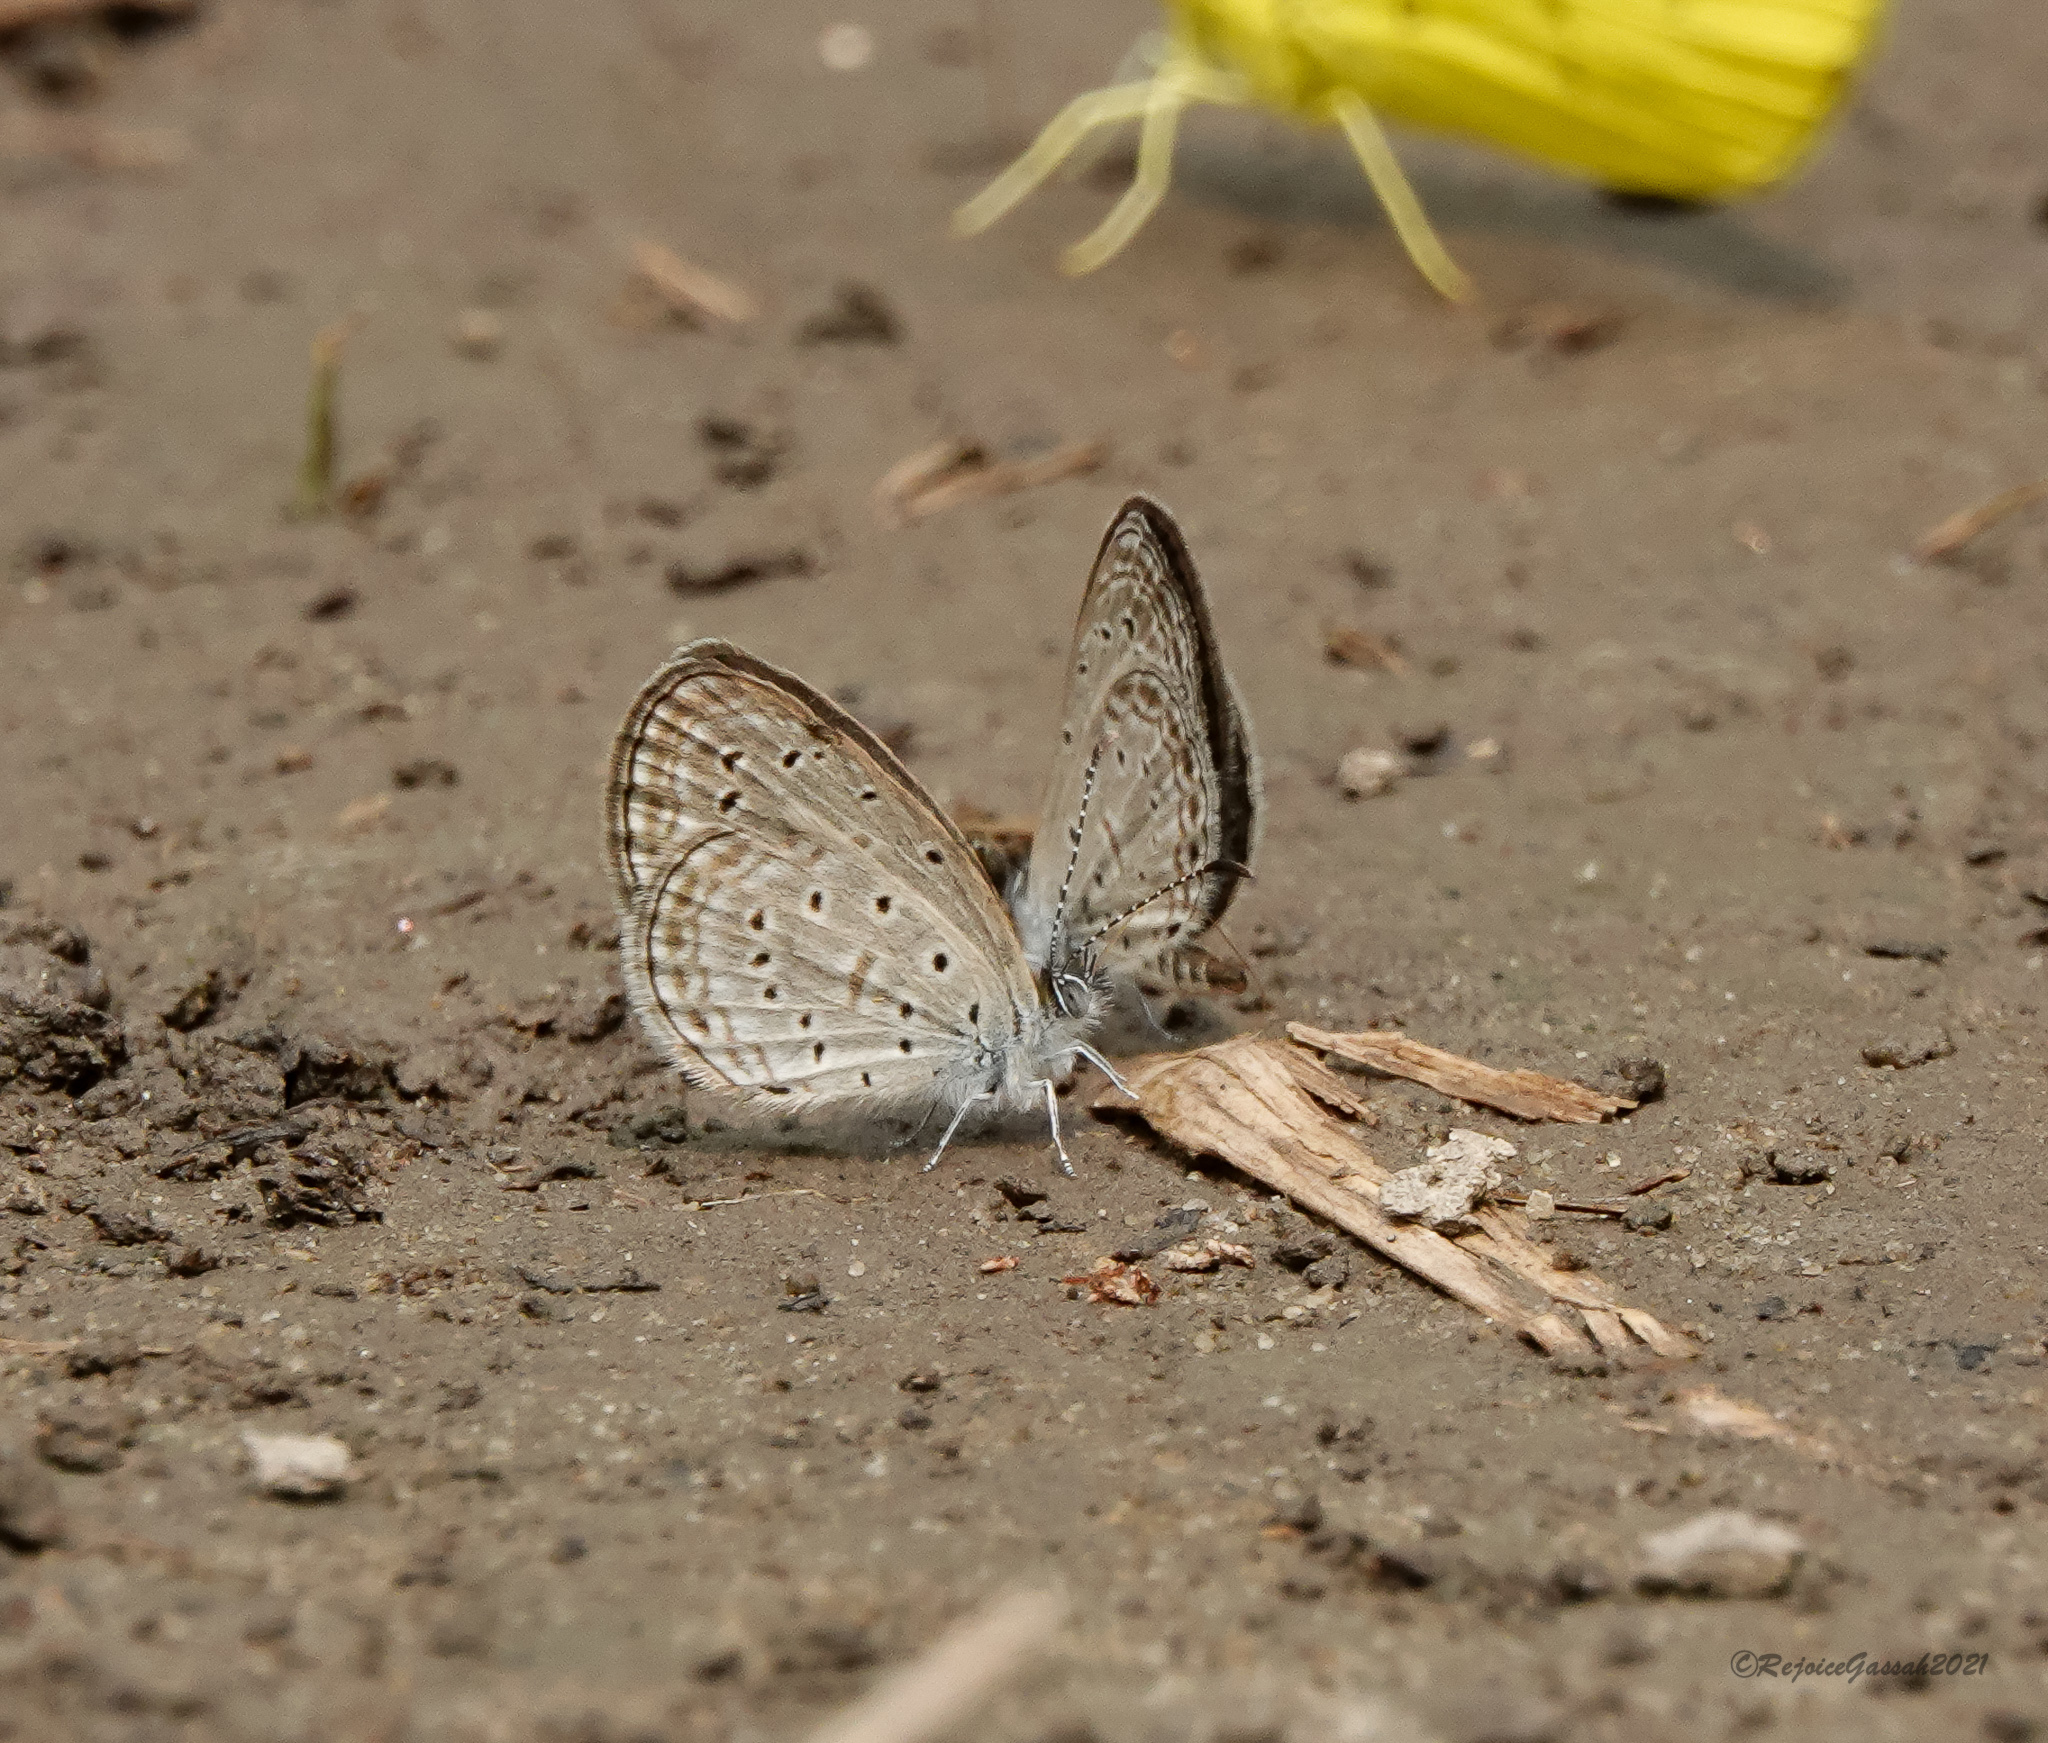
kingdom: Animalia
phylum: Arthropoda
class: Insecta
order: Lepidoptera
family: Lycaenidae
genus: Zizula
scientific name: Zizula hylax
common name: Gaika blue
